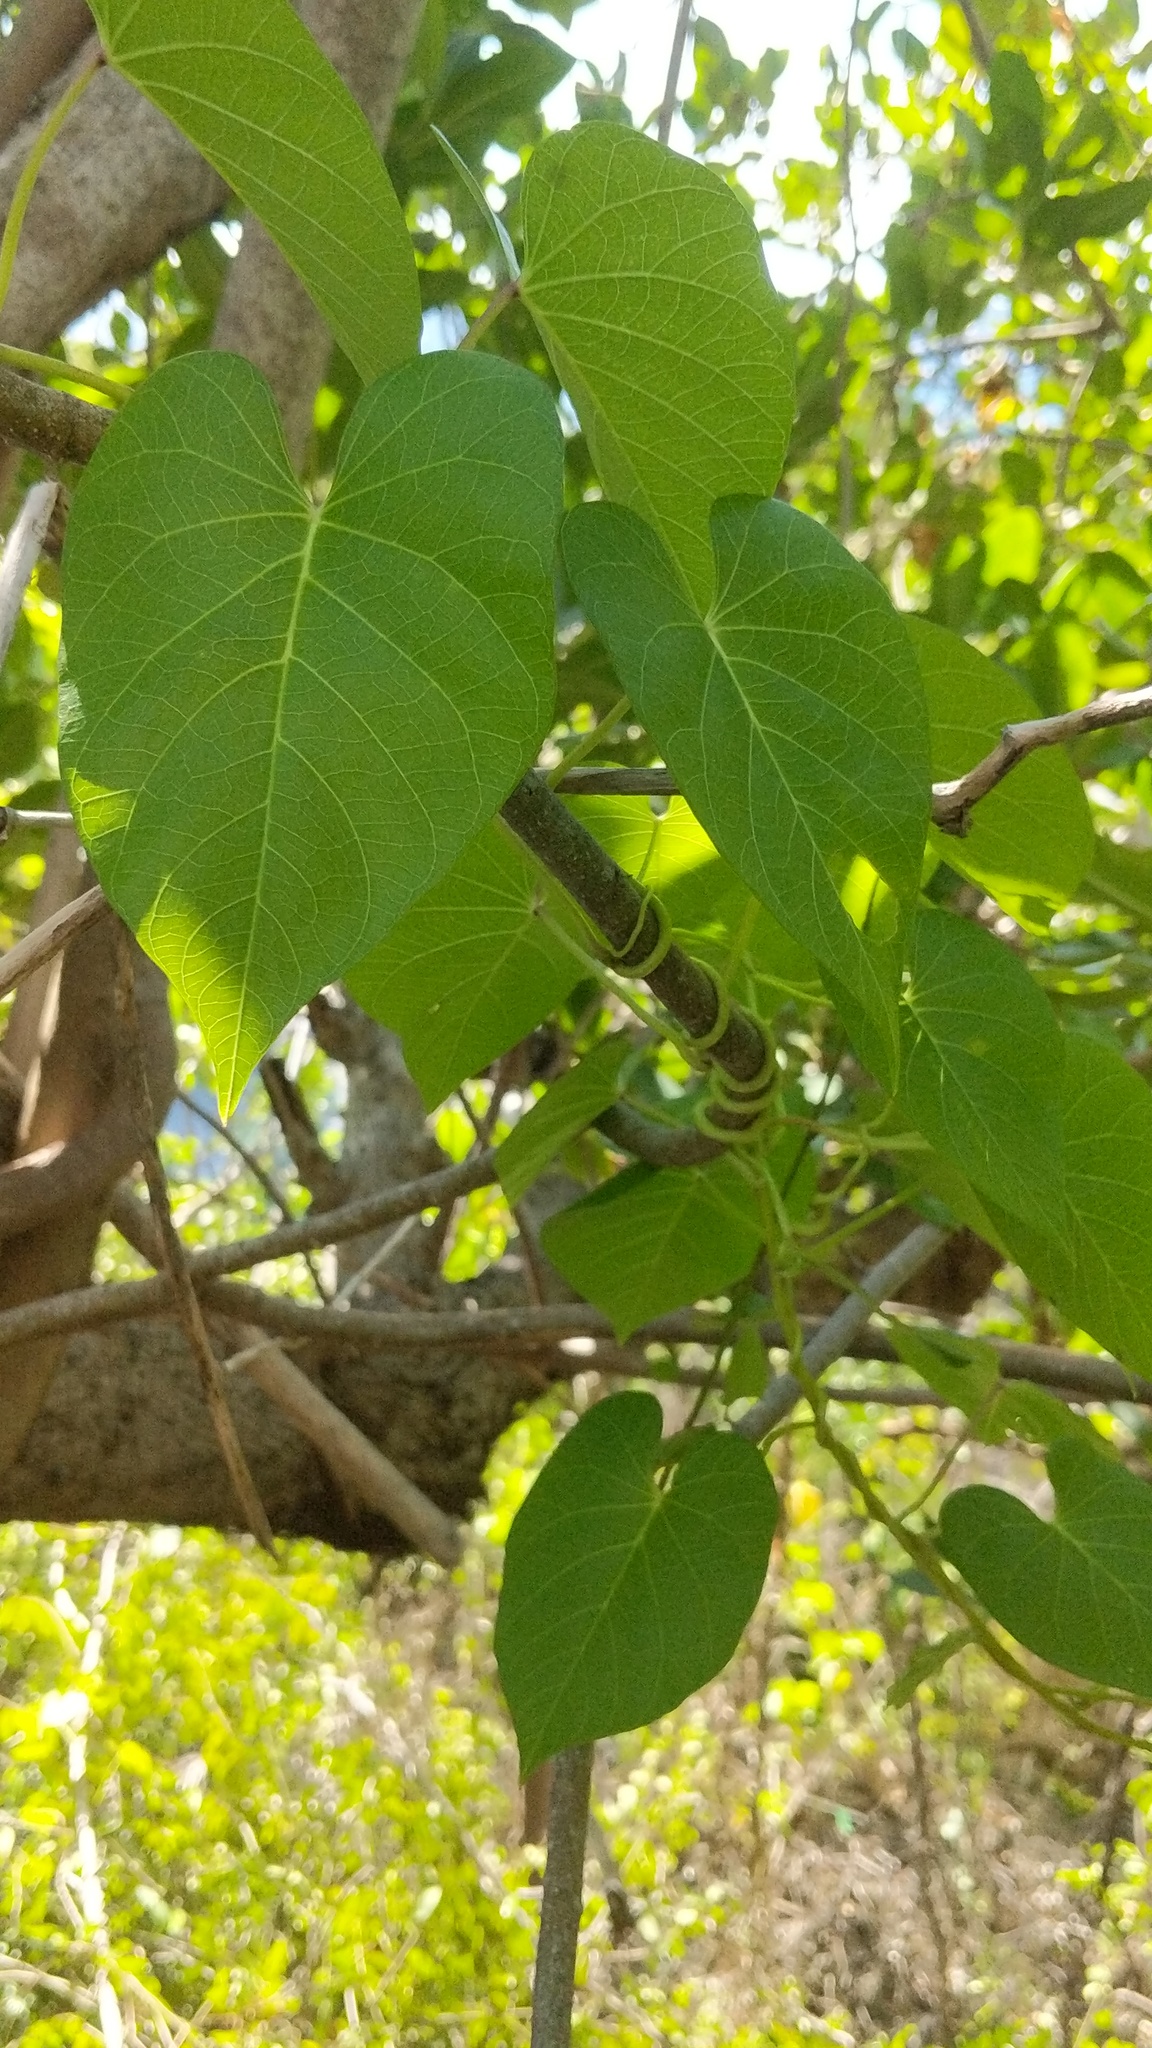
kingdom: Plantae
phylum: Tracheophyta
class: Magnoliopsida
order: Solanales
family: Convolvulaceae
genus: Ipomoea
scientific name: Ipomoea violacea
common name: Beach moonflower
